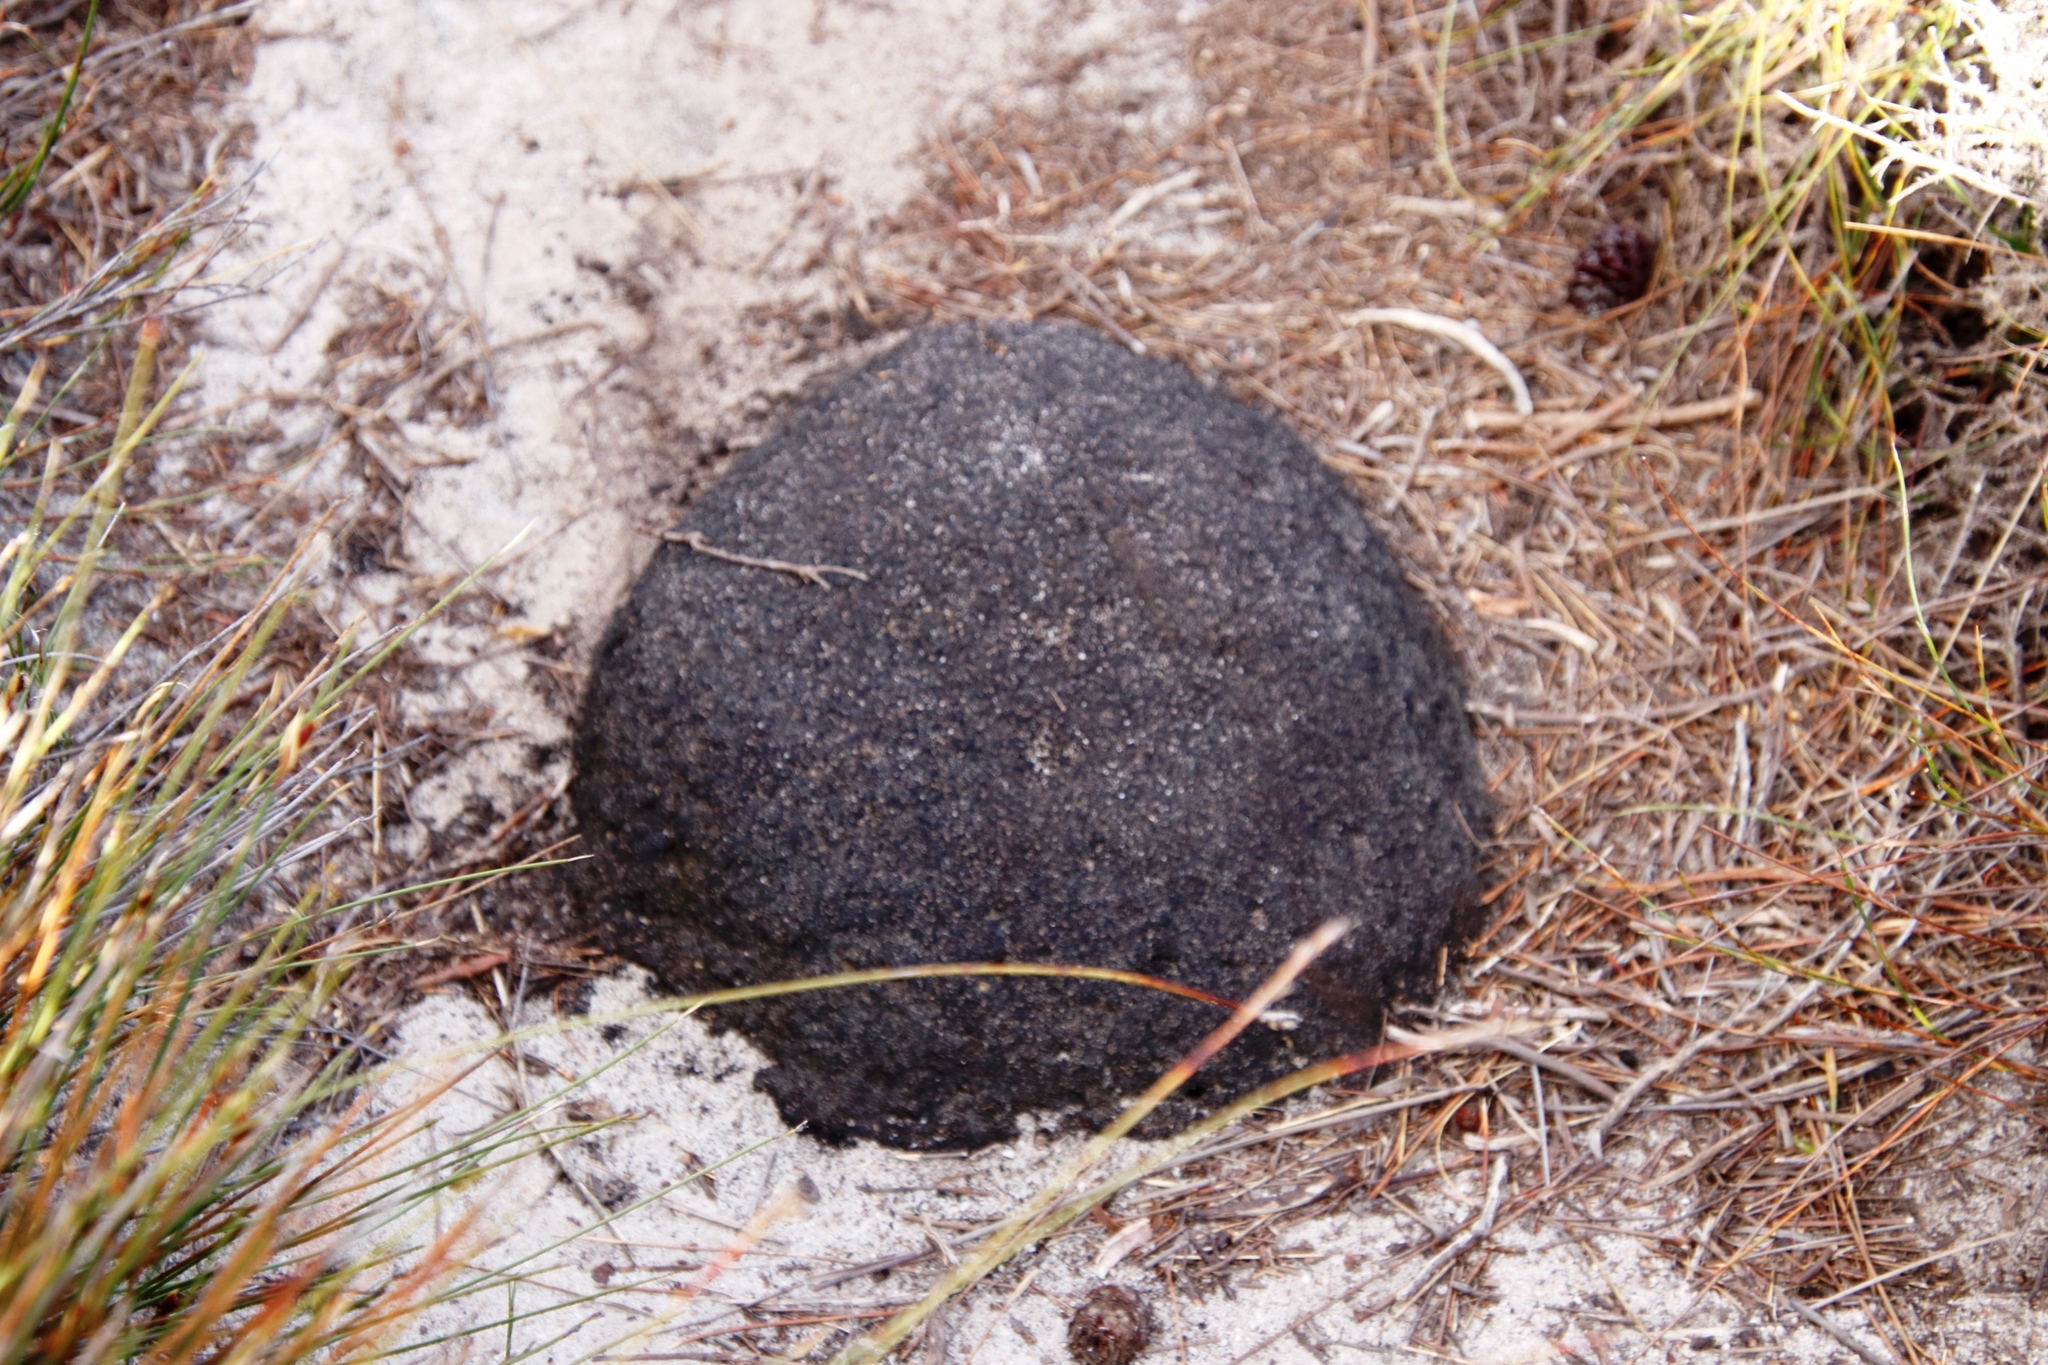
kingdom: Animalia
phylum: Arthropoda
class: Insecta
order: Blattodea
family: Termitidae
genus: Amitermes
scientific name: Amitermes hastatus
